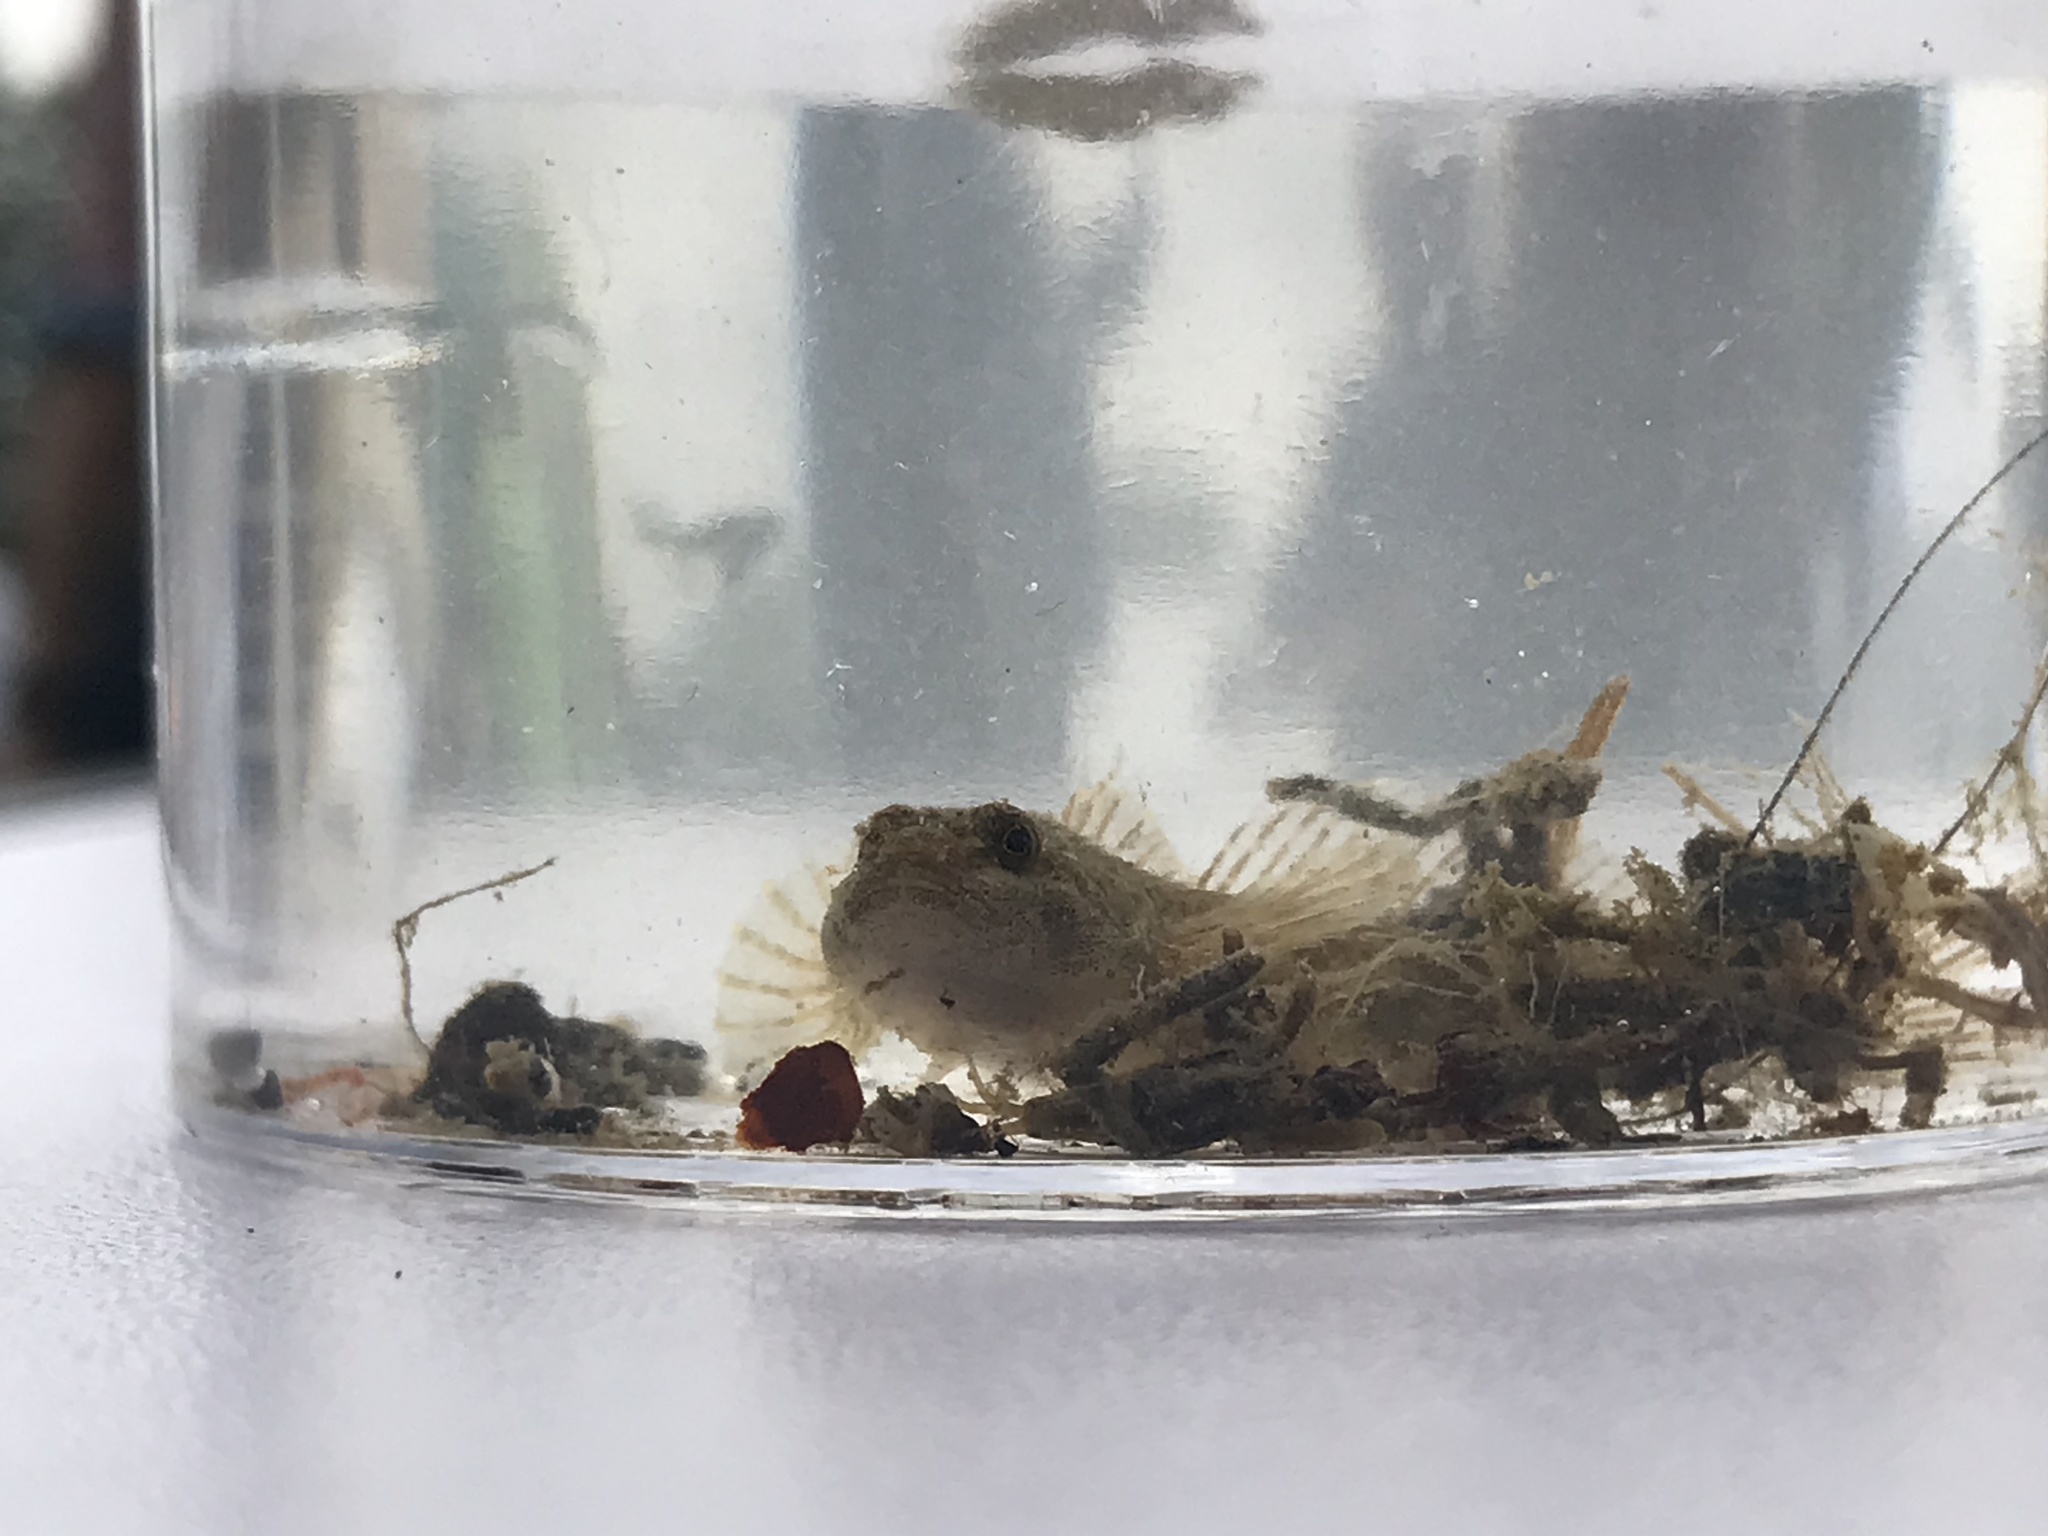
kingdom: Animalia
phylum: Chordata
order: Scorpaeniformes
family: Cottidae
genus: Cottus
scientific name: Cottus perifretum
